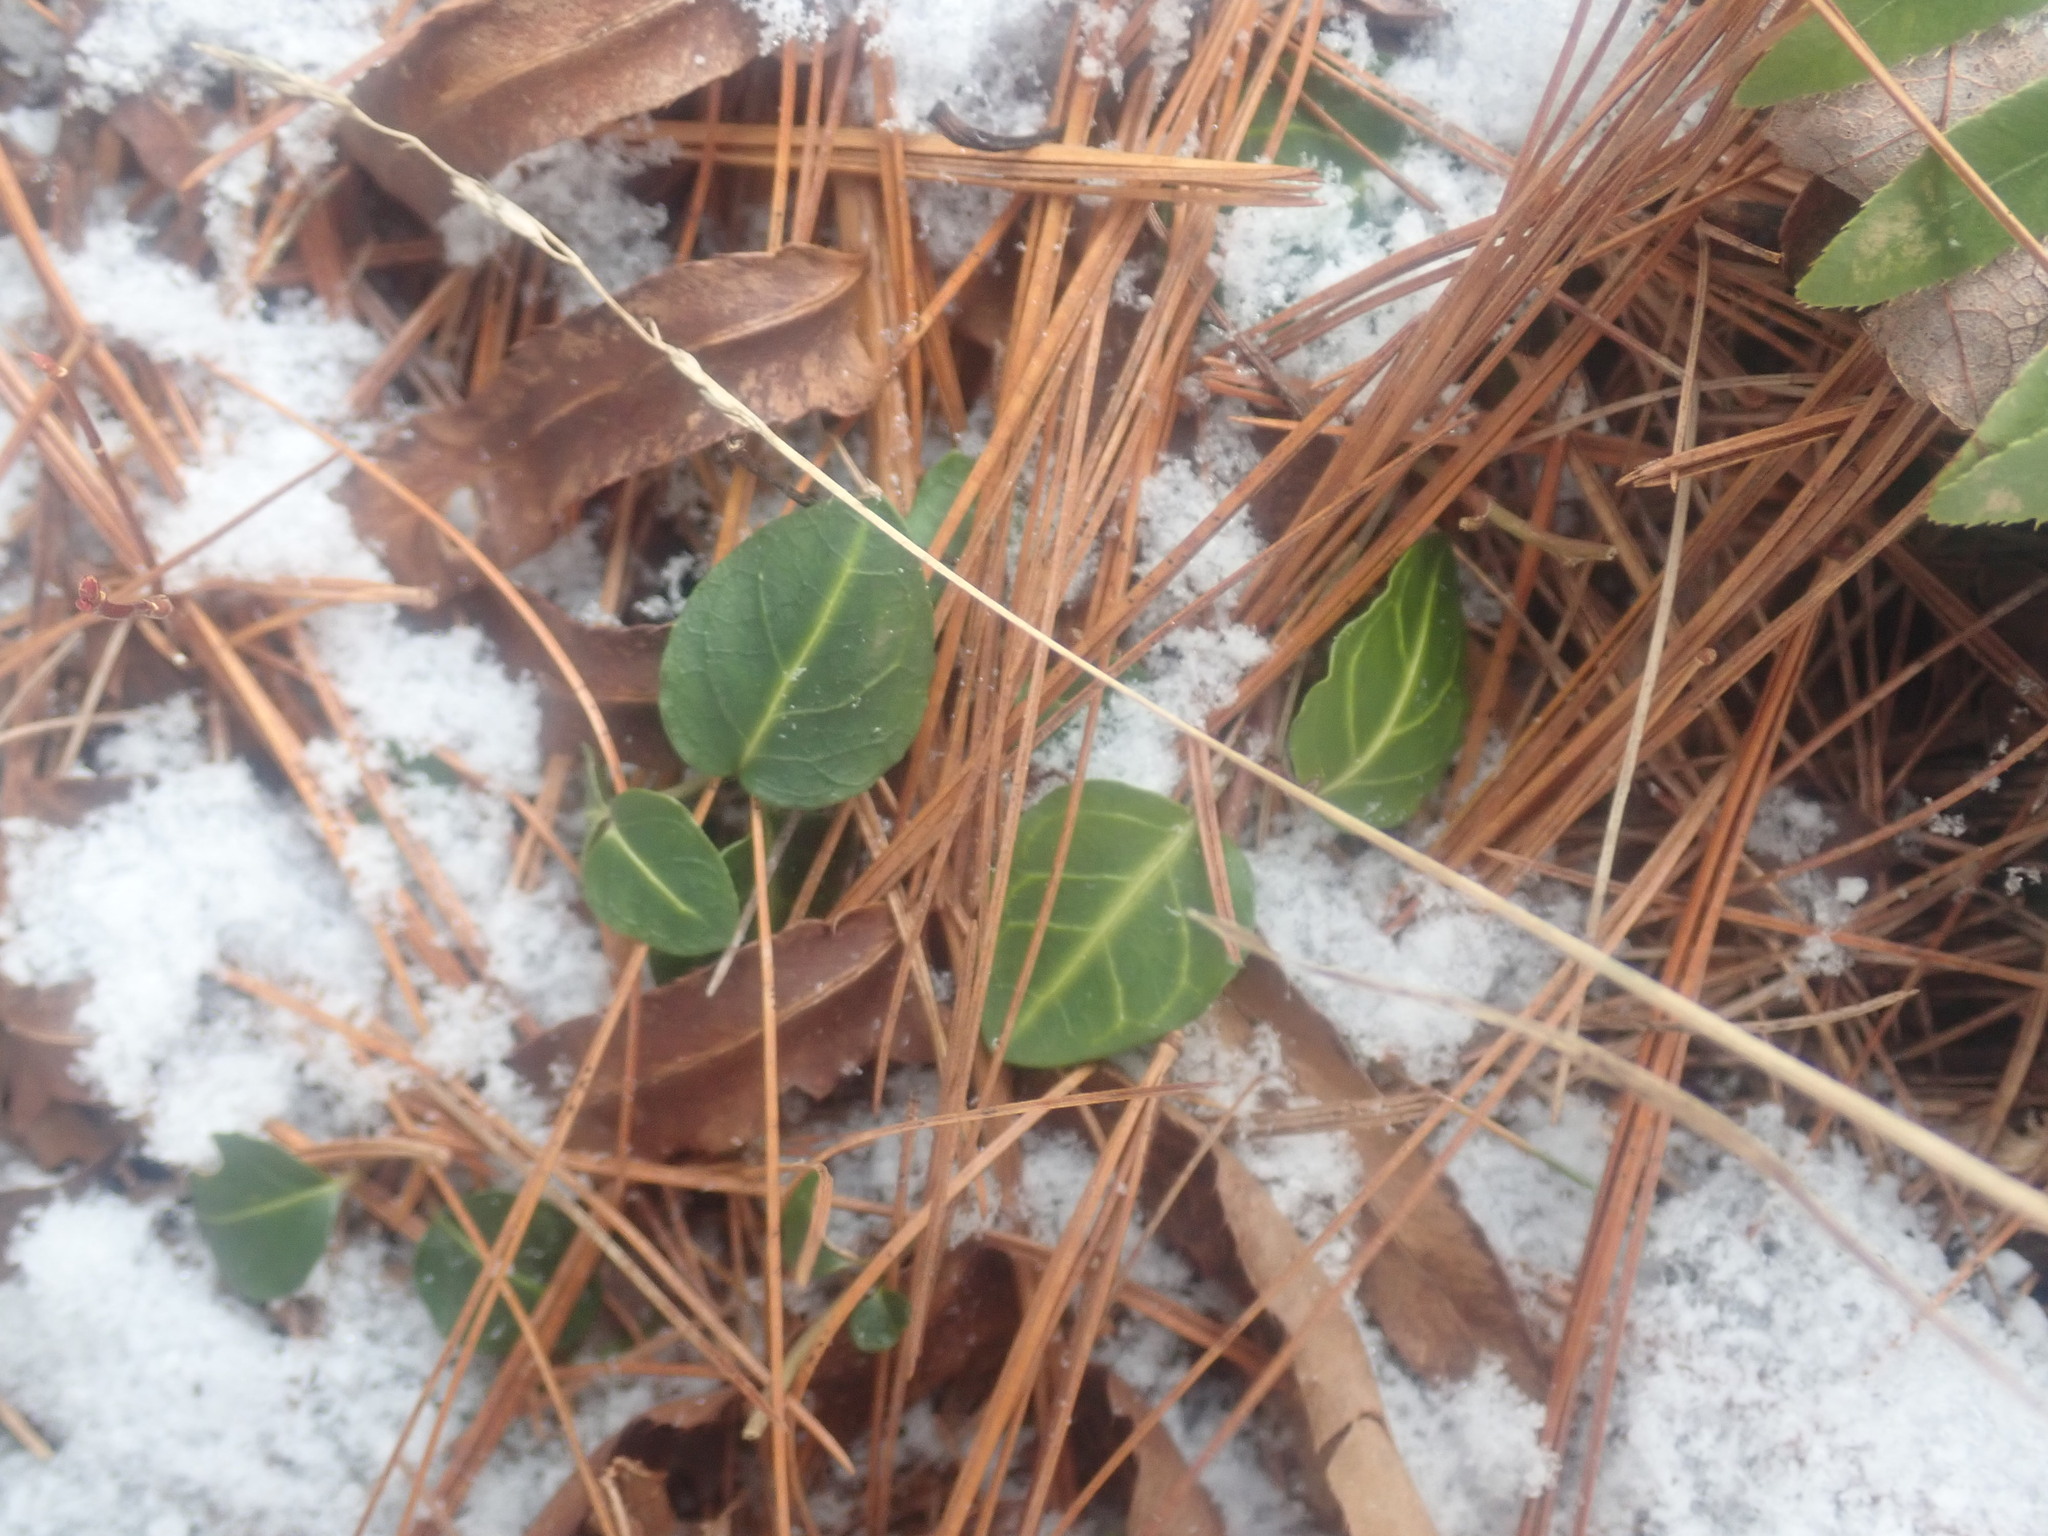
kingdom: Plantae
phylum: Tracheophyta
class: Magnoliopsida
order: Gentianales
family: Rubiaceae
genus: Mitchella
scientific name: Mitchella repens
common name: Partridge-berry
